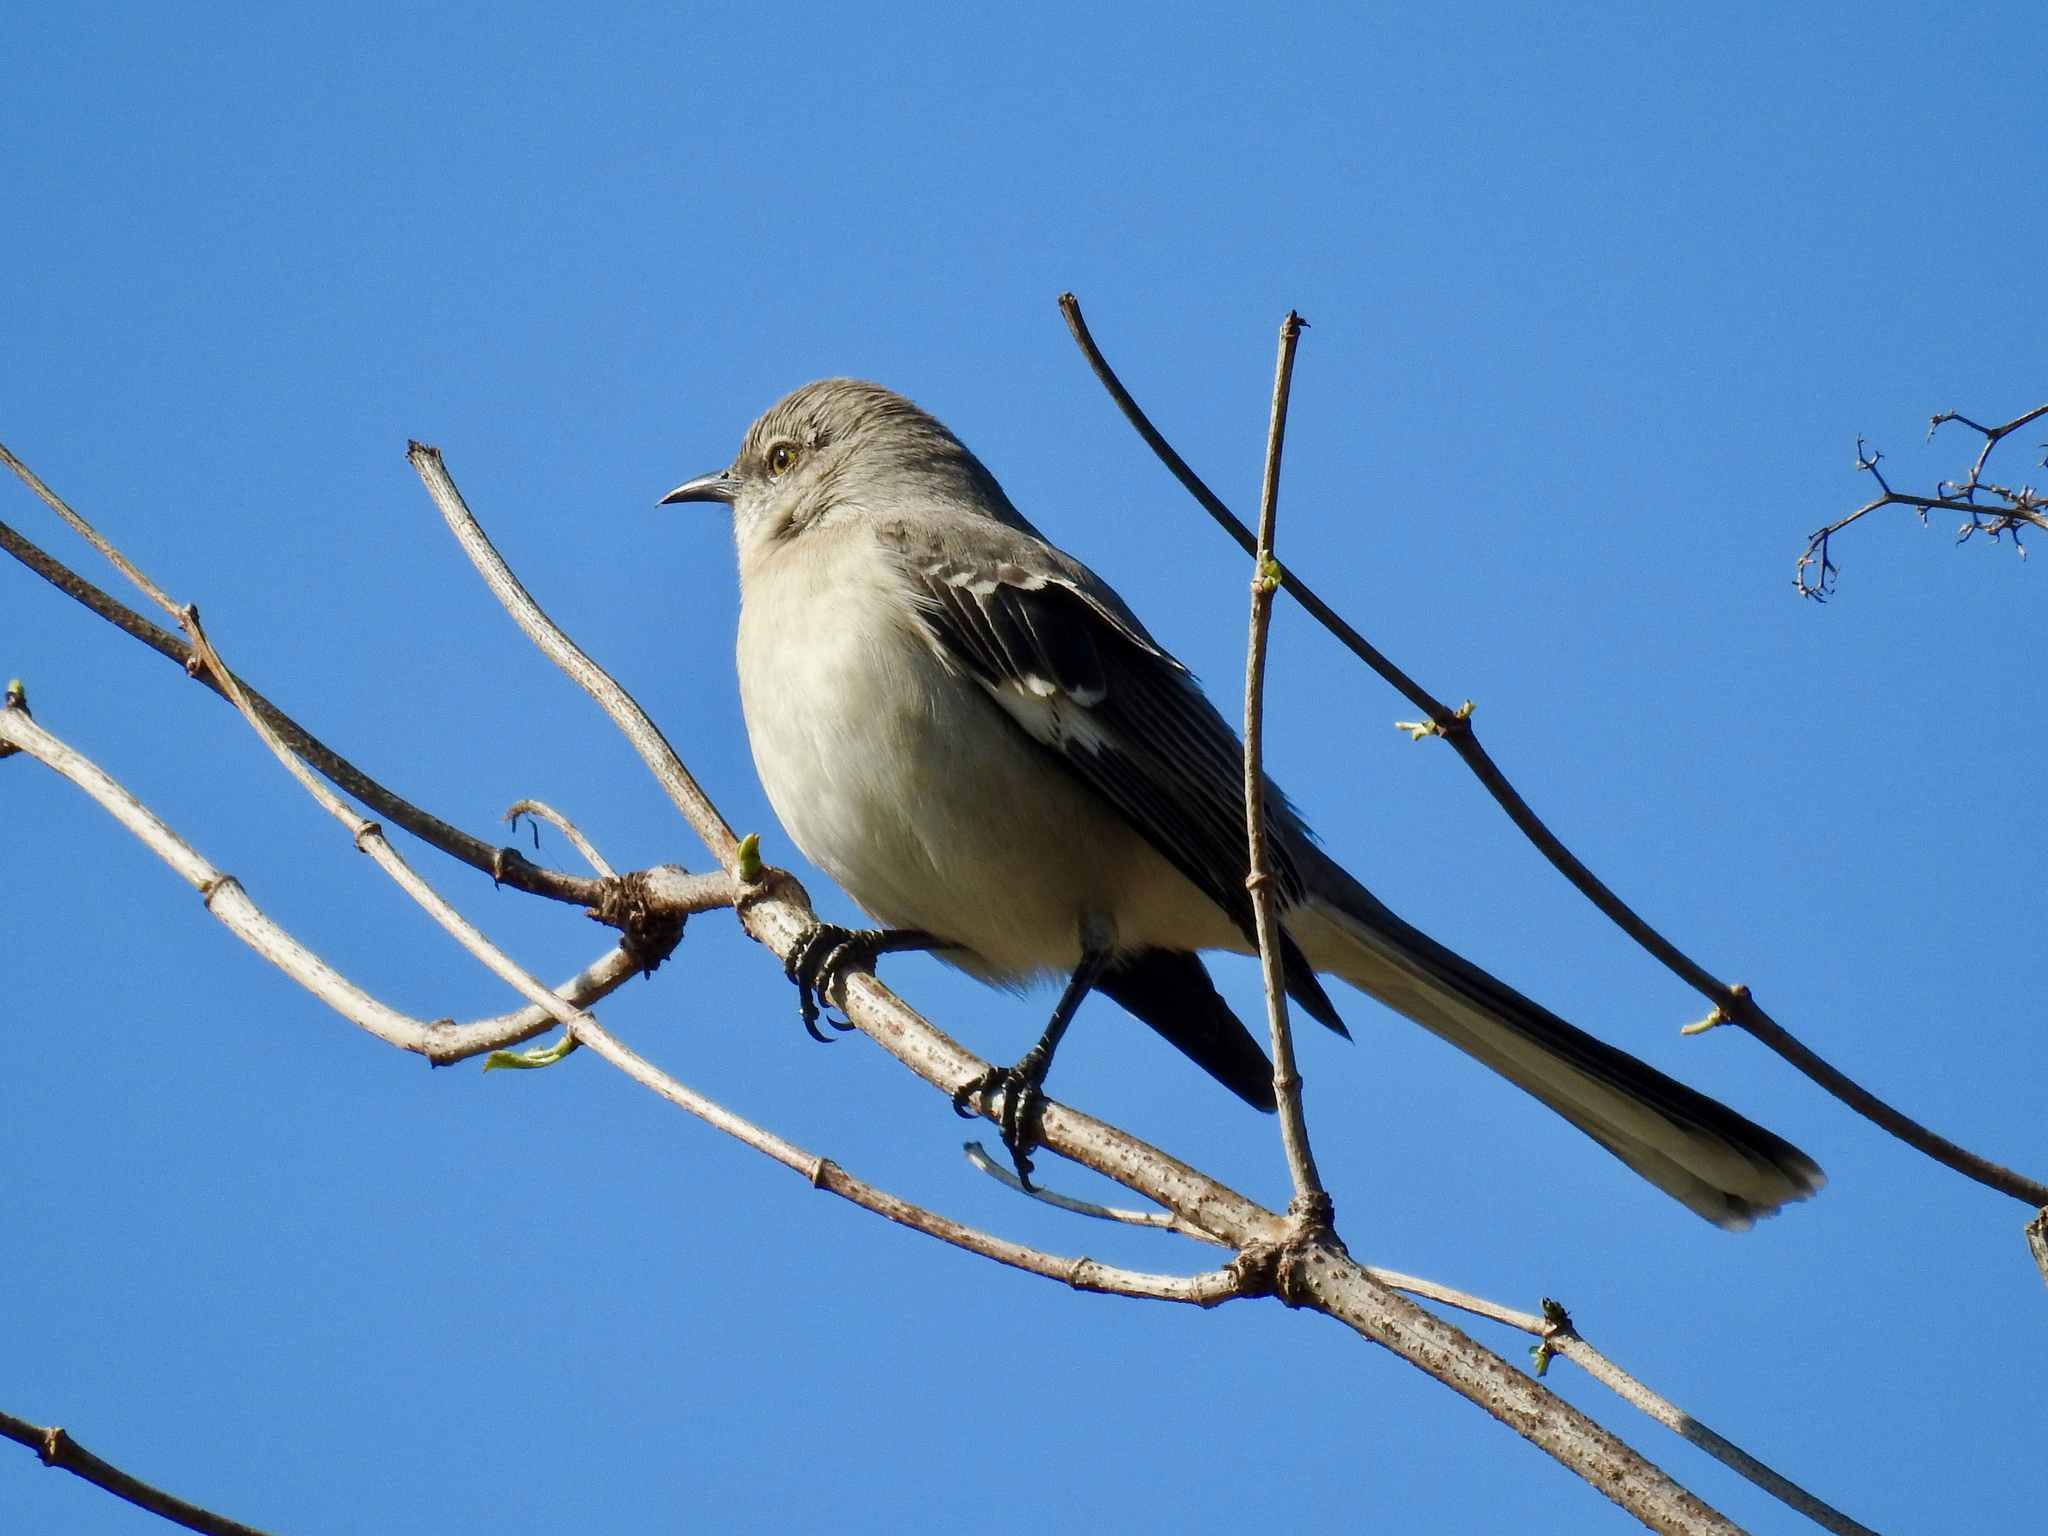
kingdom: Animalia
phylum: Chordata
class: Aves
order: Passeriformes
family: Mimidae
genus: Mimus
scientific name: Mimus polyglottos
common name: Northern mockingbird
